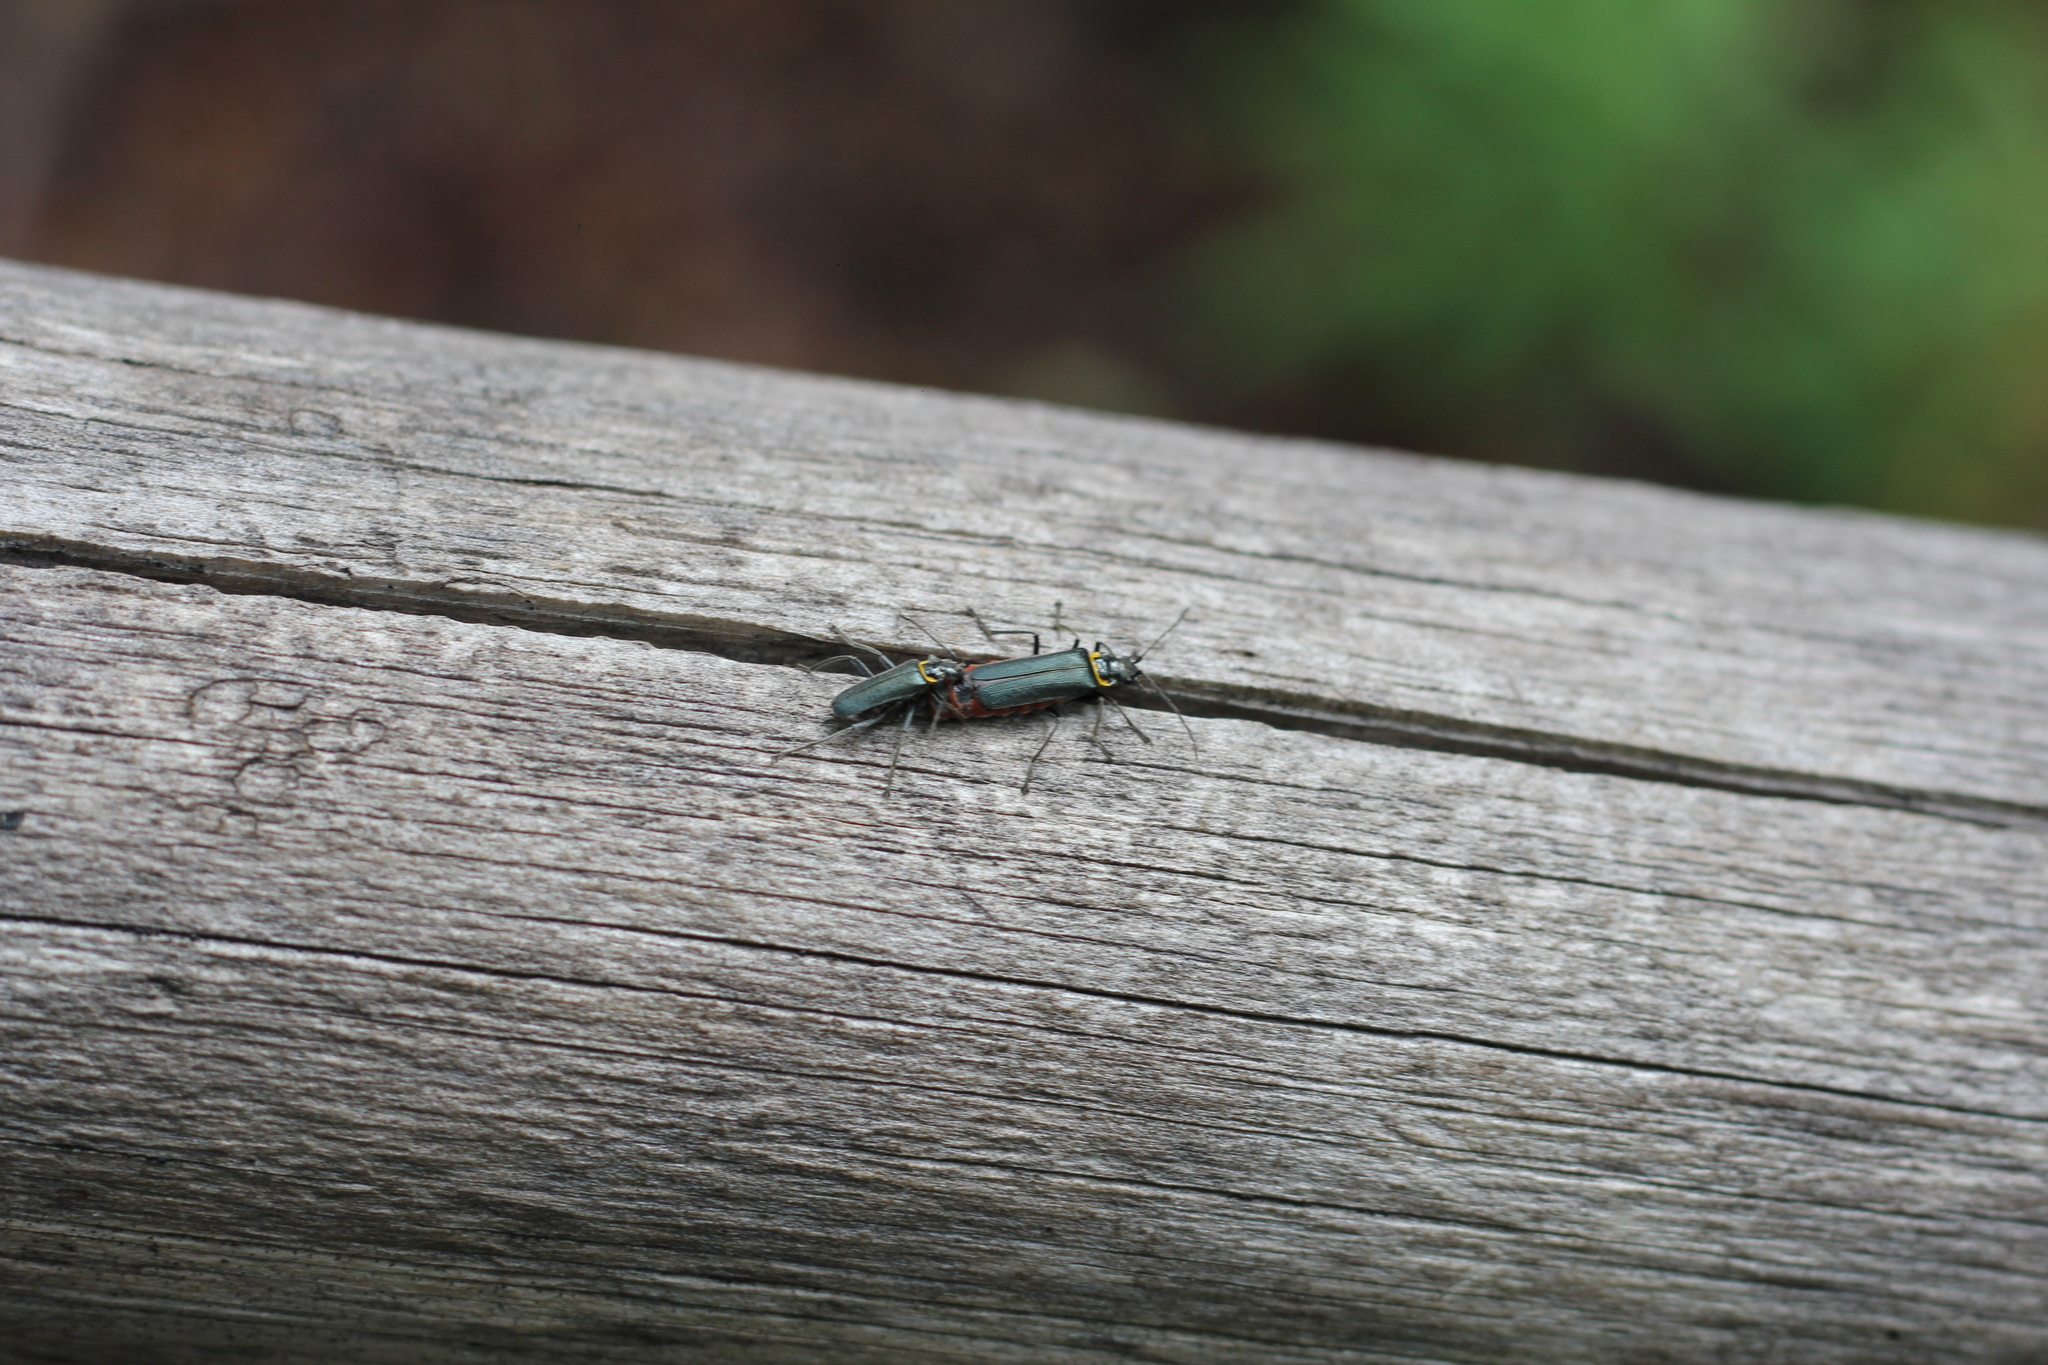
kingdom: Animalia
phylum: Arthropoda
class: Insecta
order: Coleoptera
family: Cantharidae
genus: Chauliognathus
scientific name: Chauliognathus
